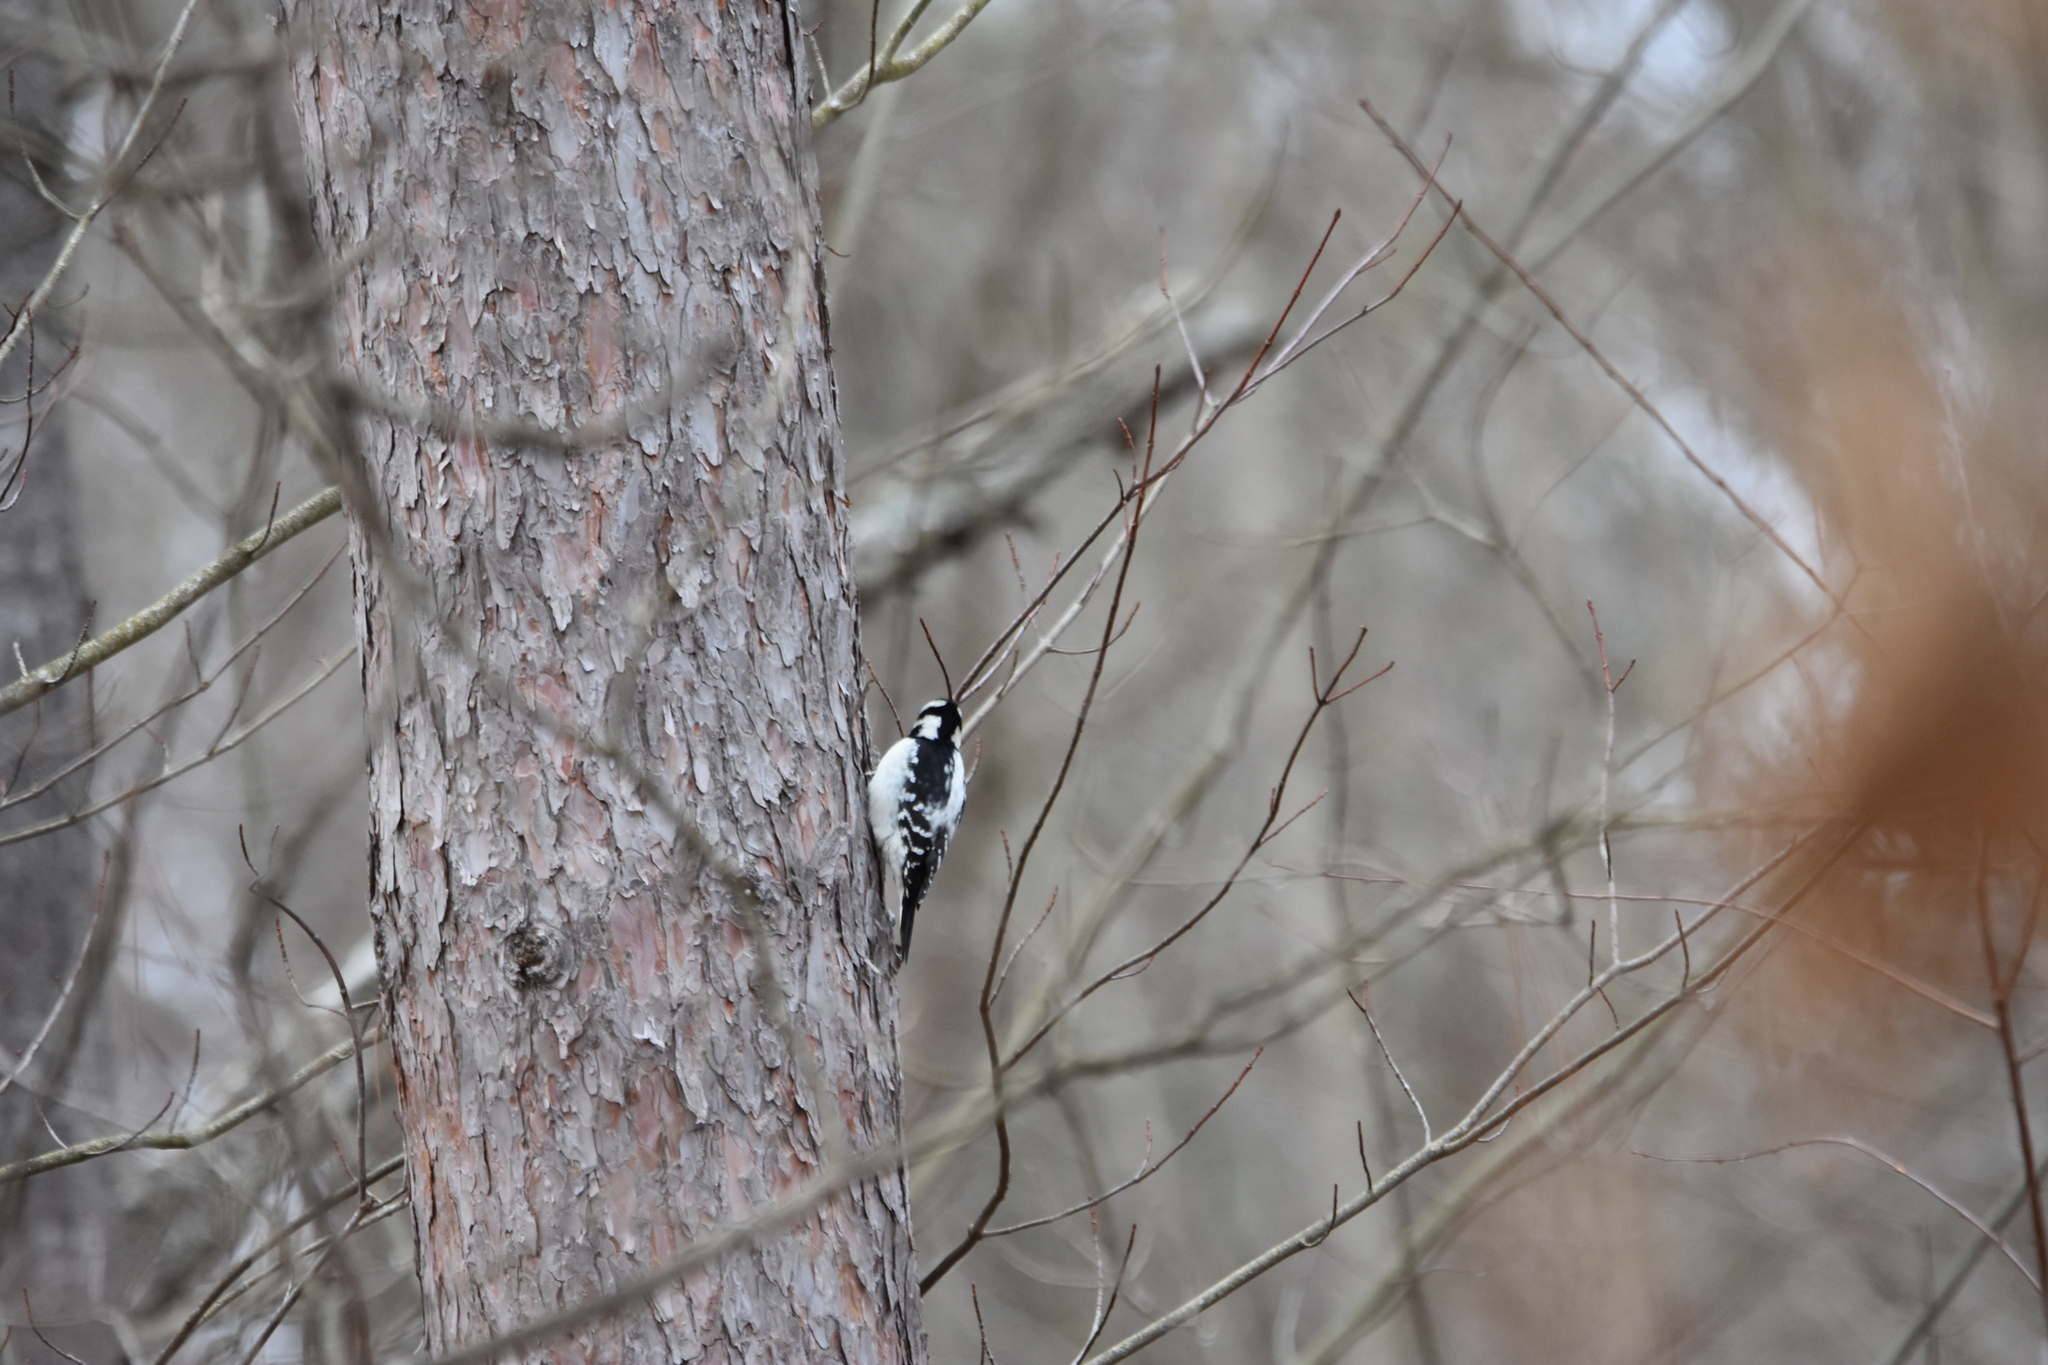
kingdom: Animalia
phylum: Chordata
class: Aves
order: Piciformes
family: Picidae
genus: Dryobates
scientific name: Dryobates pubescens
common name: Downy woodpecker
